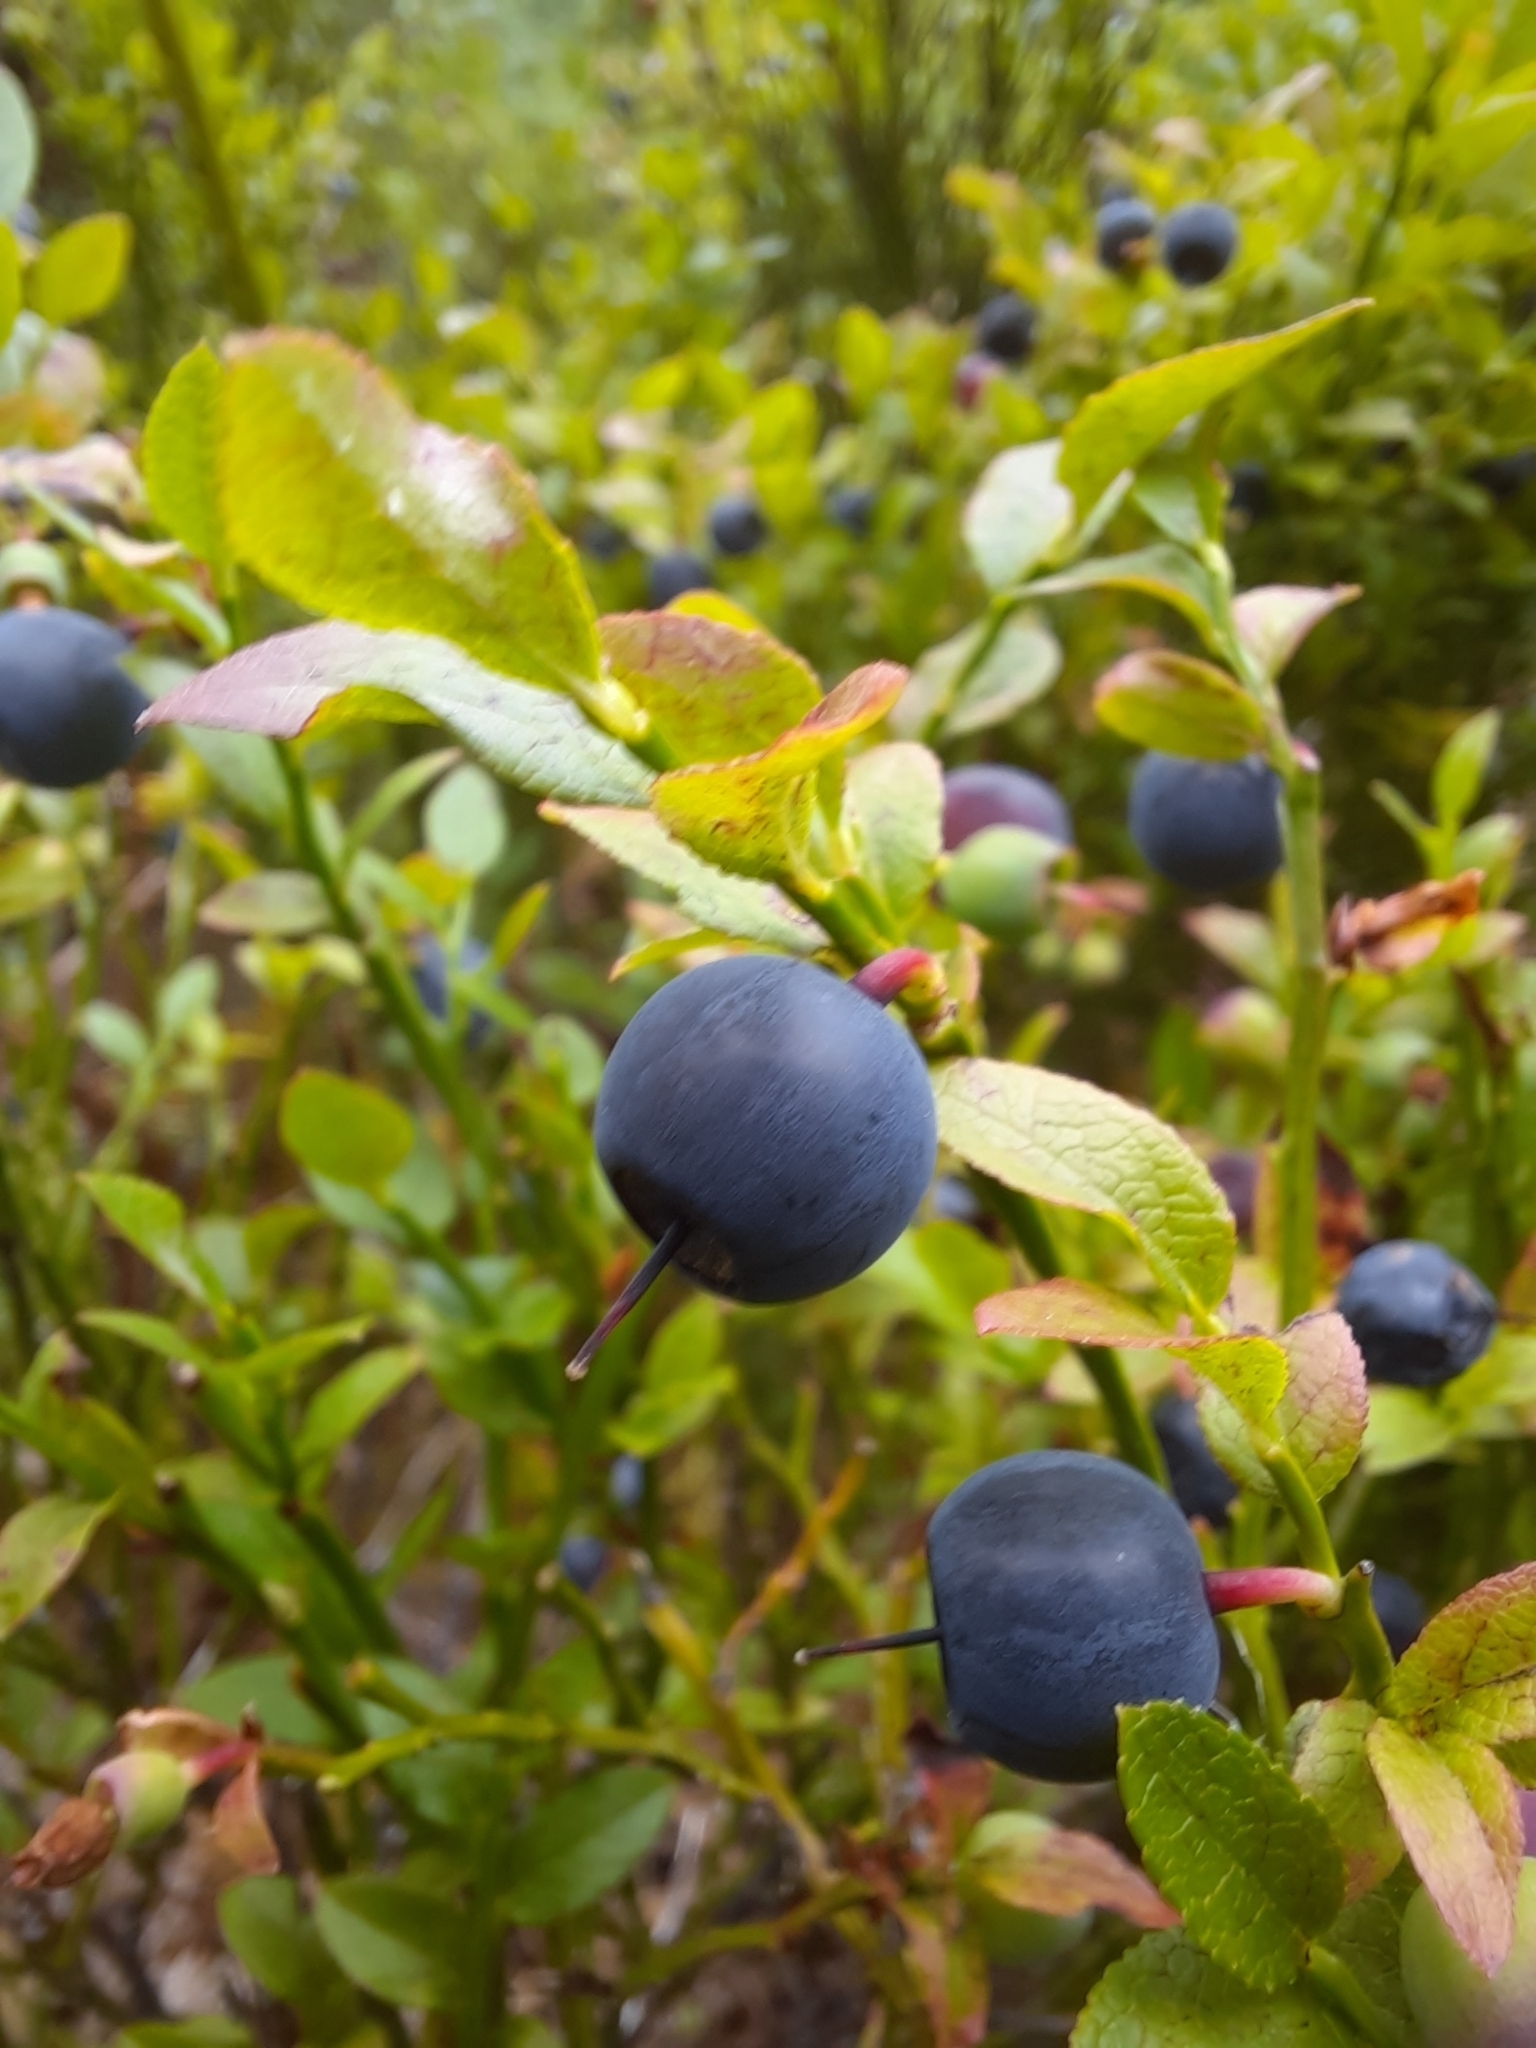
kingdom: Plantae
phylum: Tracheophyta
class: Magnoliopsida
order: Ericales
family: Ericaceae
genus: Vaccinium
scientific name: Vaccinium myrtillus
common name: Bilberry
